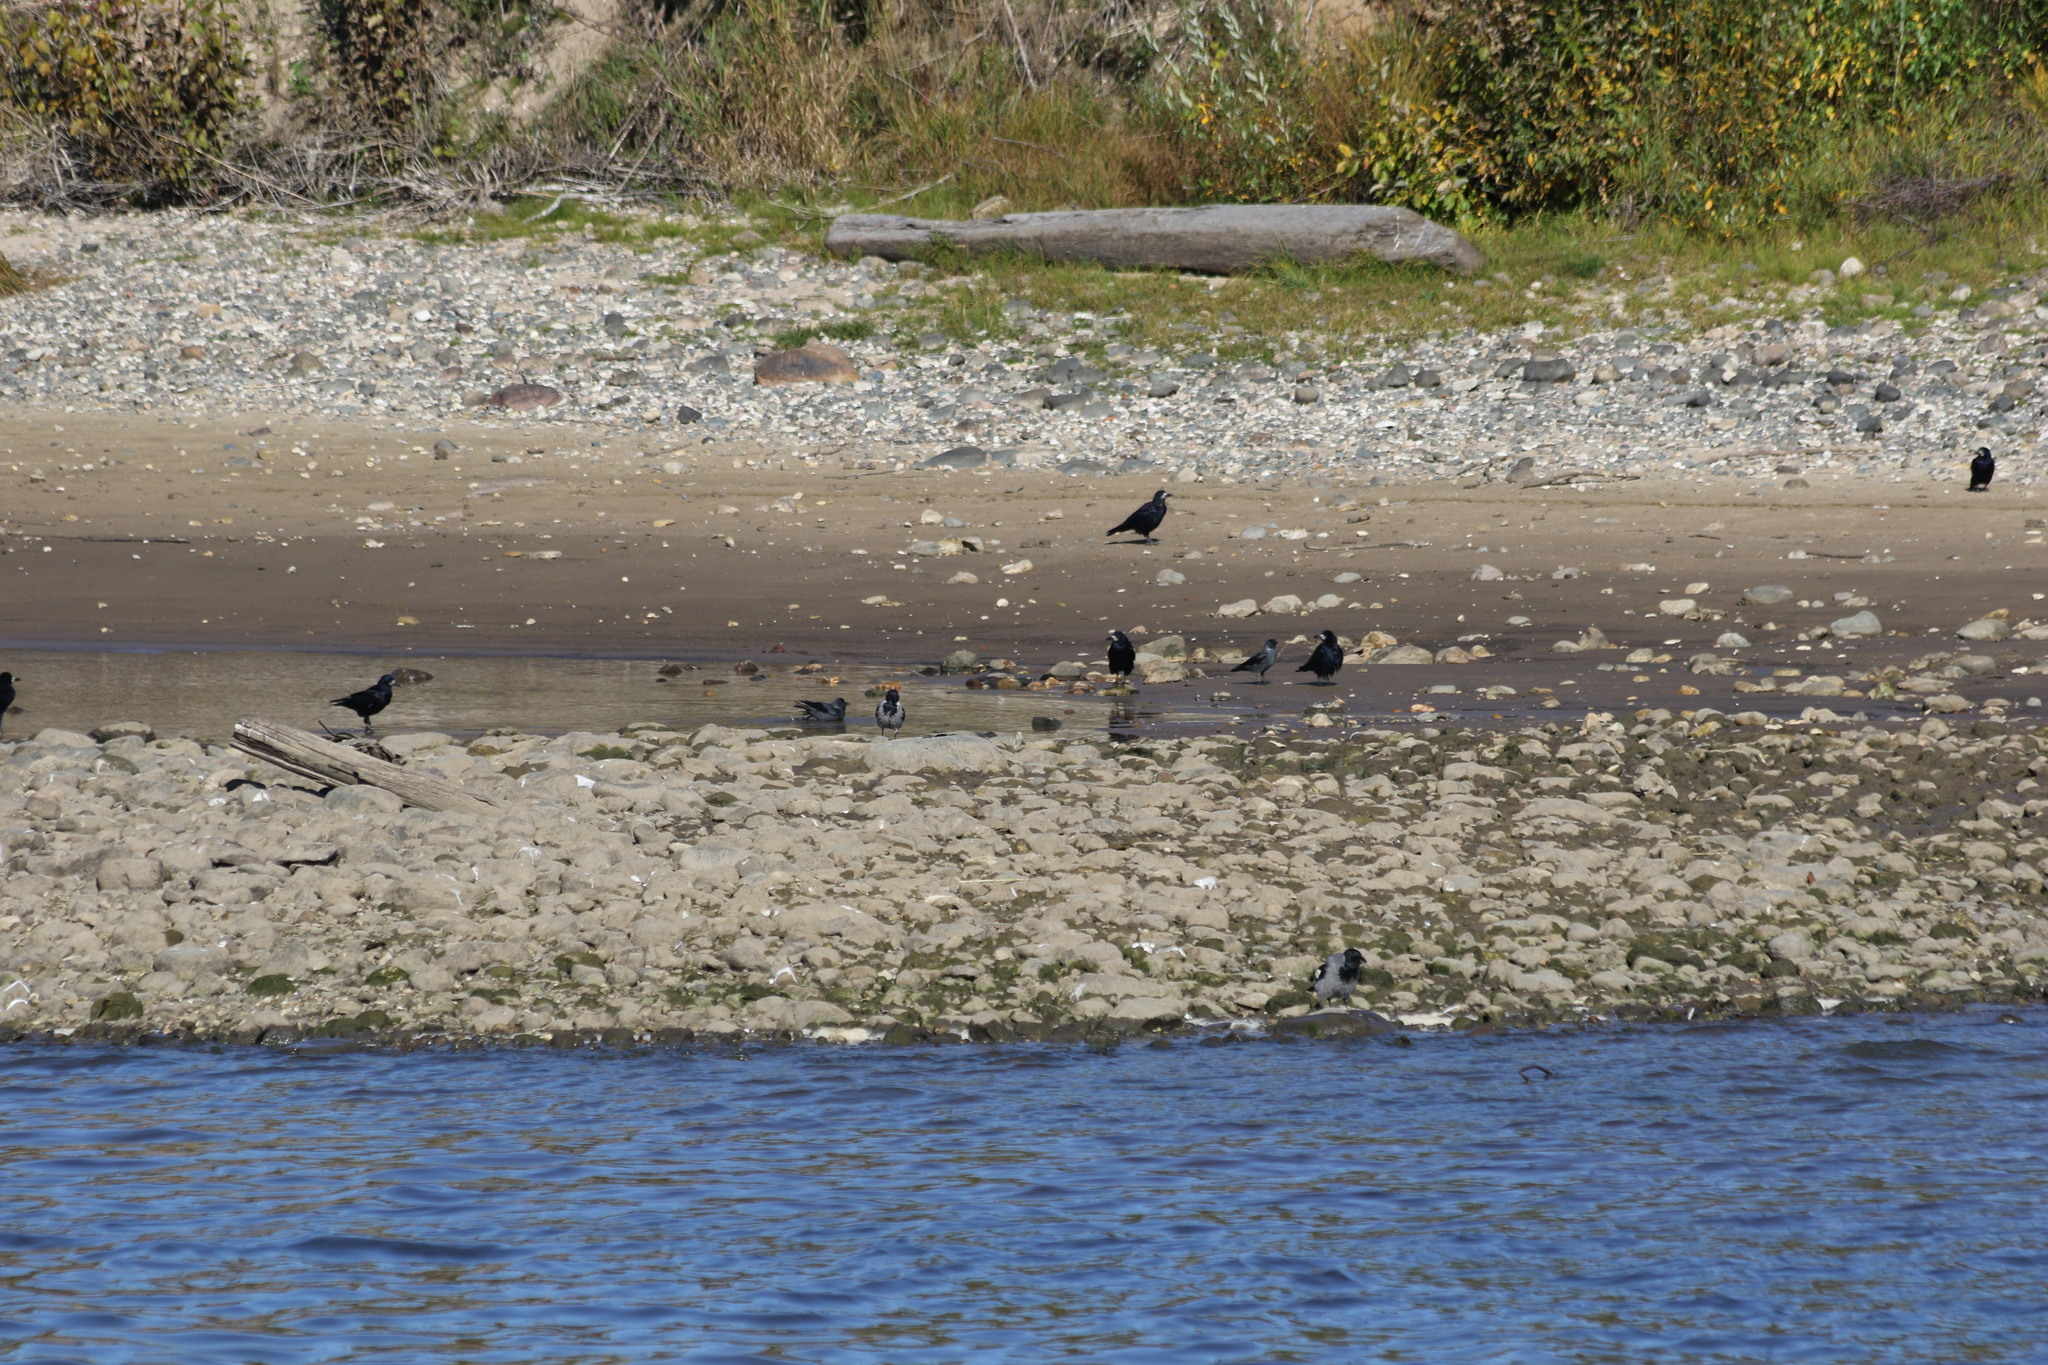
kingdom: Animalia
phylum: Chordata
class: Aves
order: Passeriformes
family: Corvidae
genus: Corvus
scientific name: Corvus cornix
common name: Hooded crow
